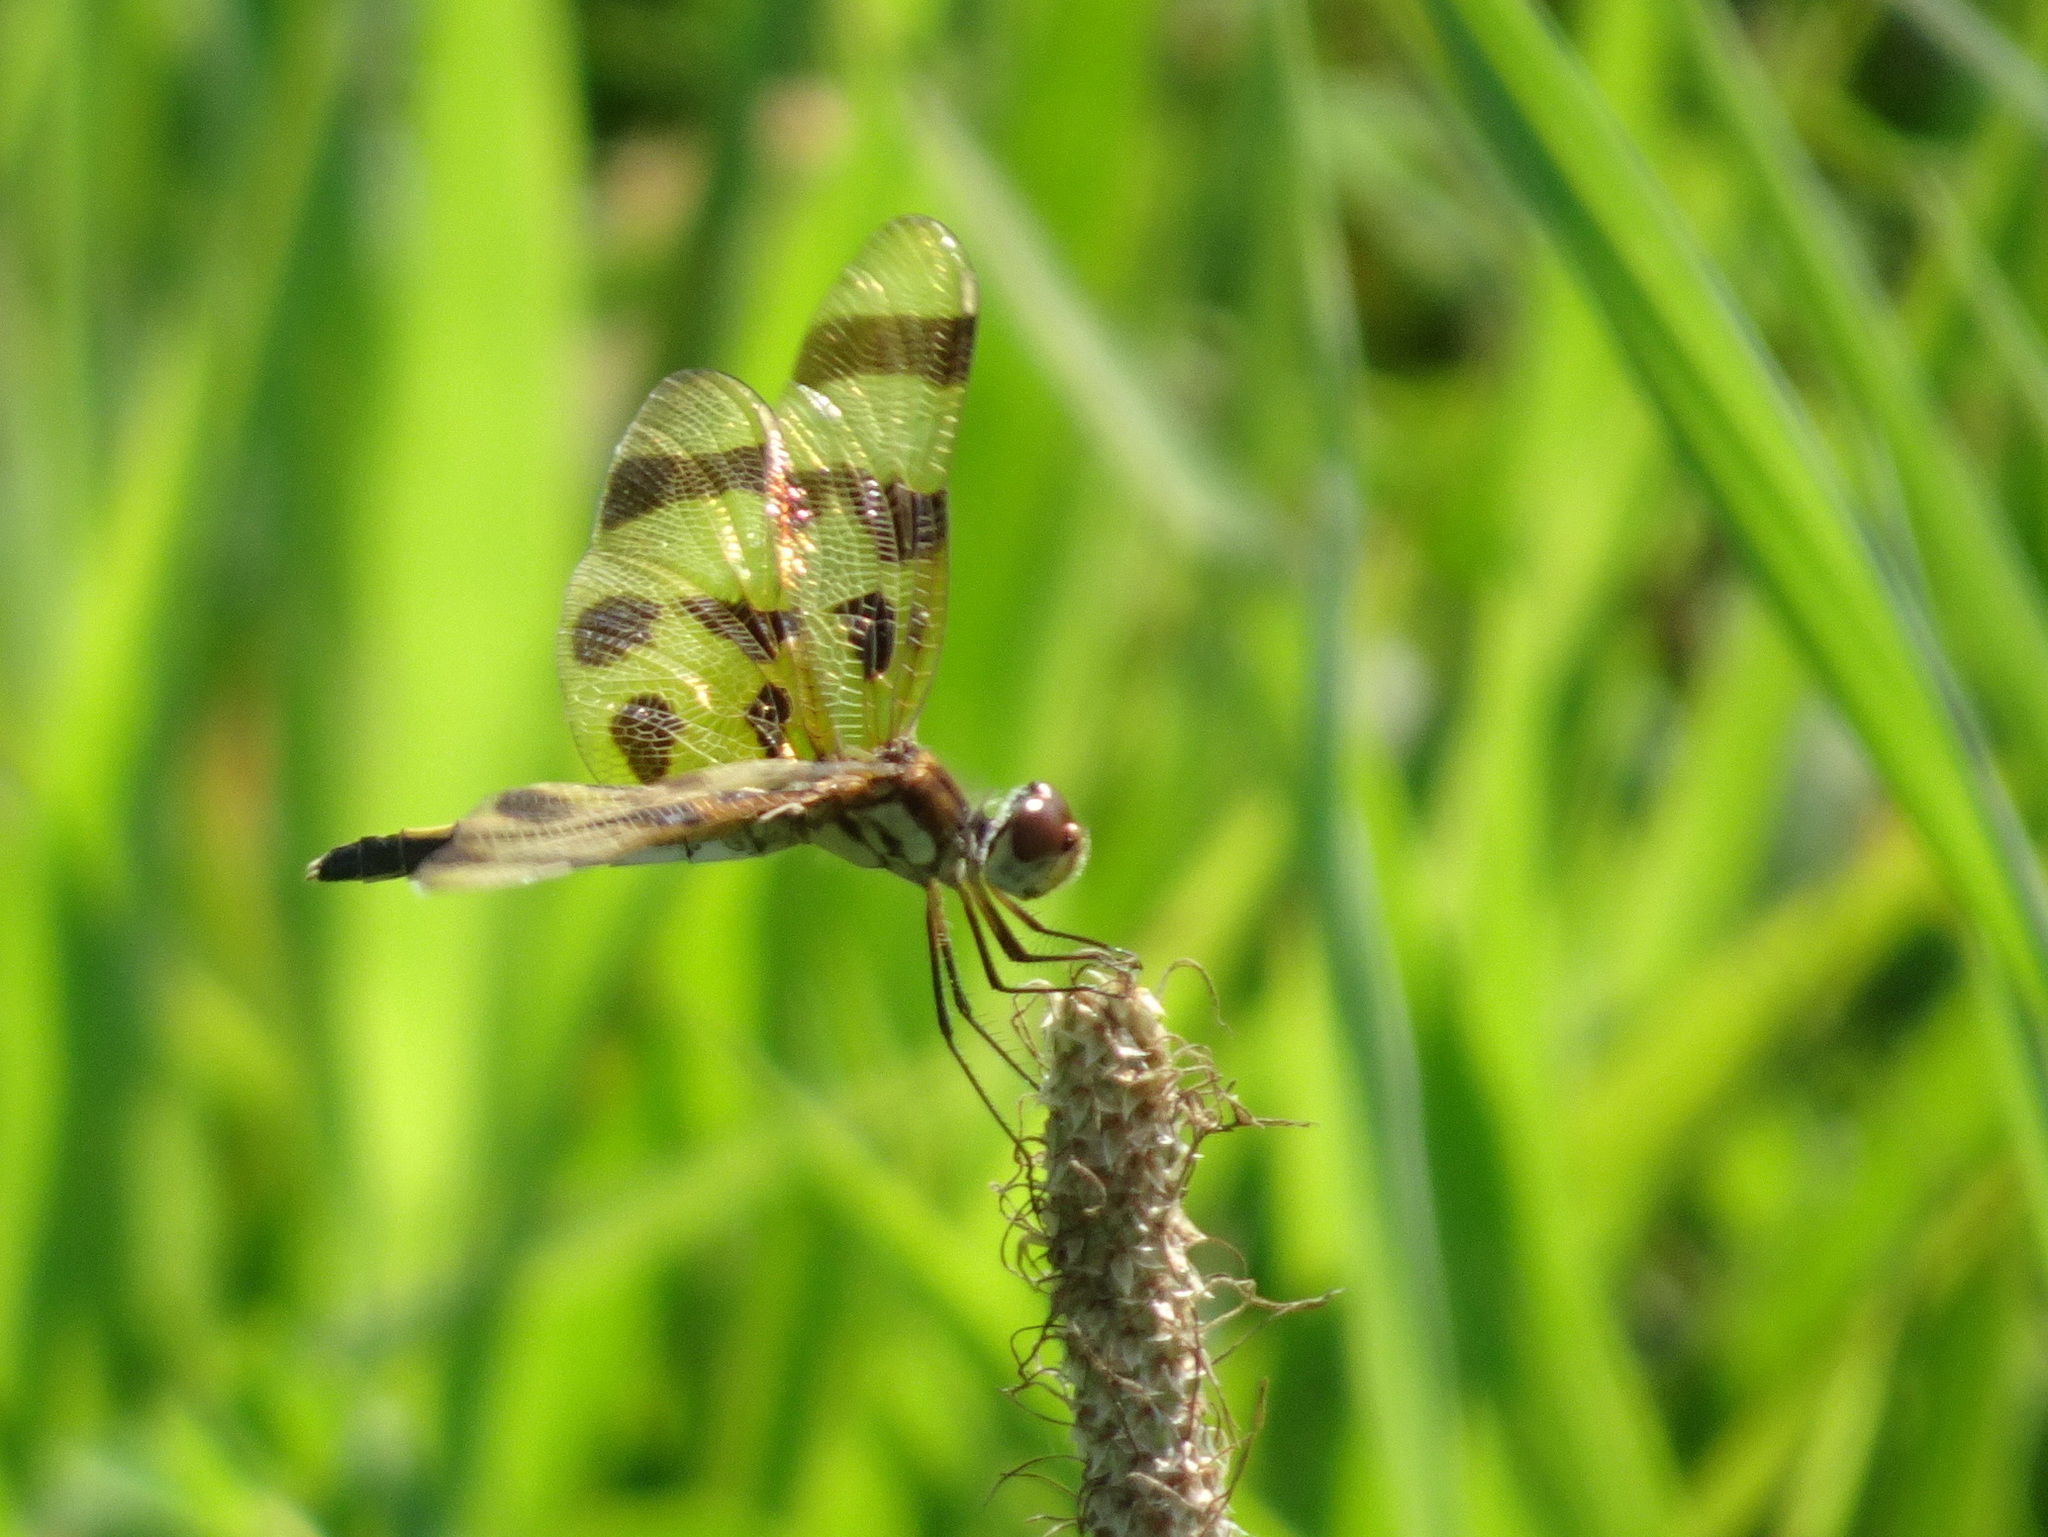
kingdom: Animalia
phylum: Arthropoda
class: Insecta
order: Odonata
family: Libellulidae
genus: Celithemis
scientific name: Celithemis eponina
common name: Halloween pennant
